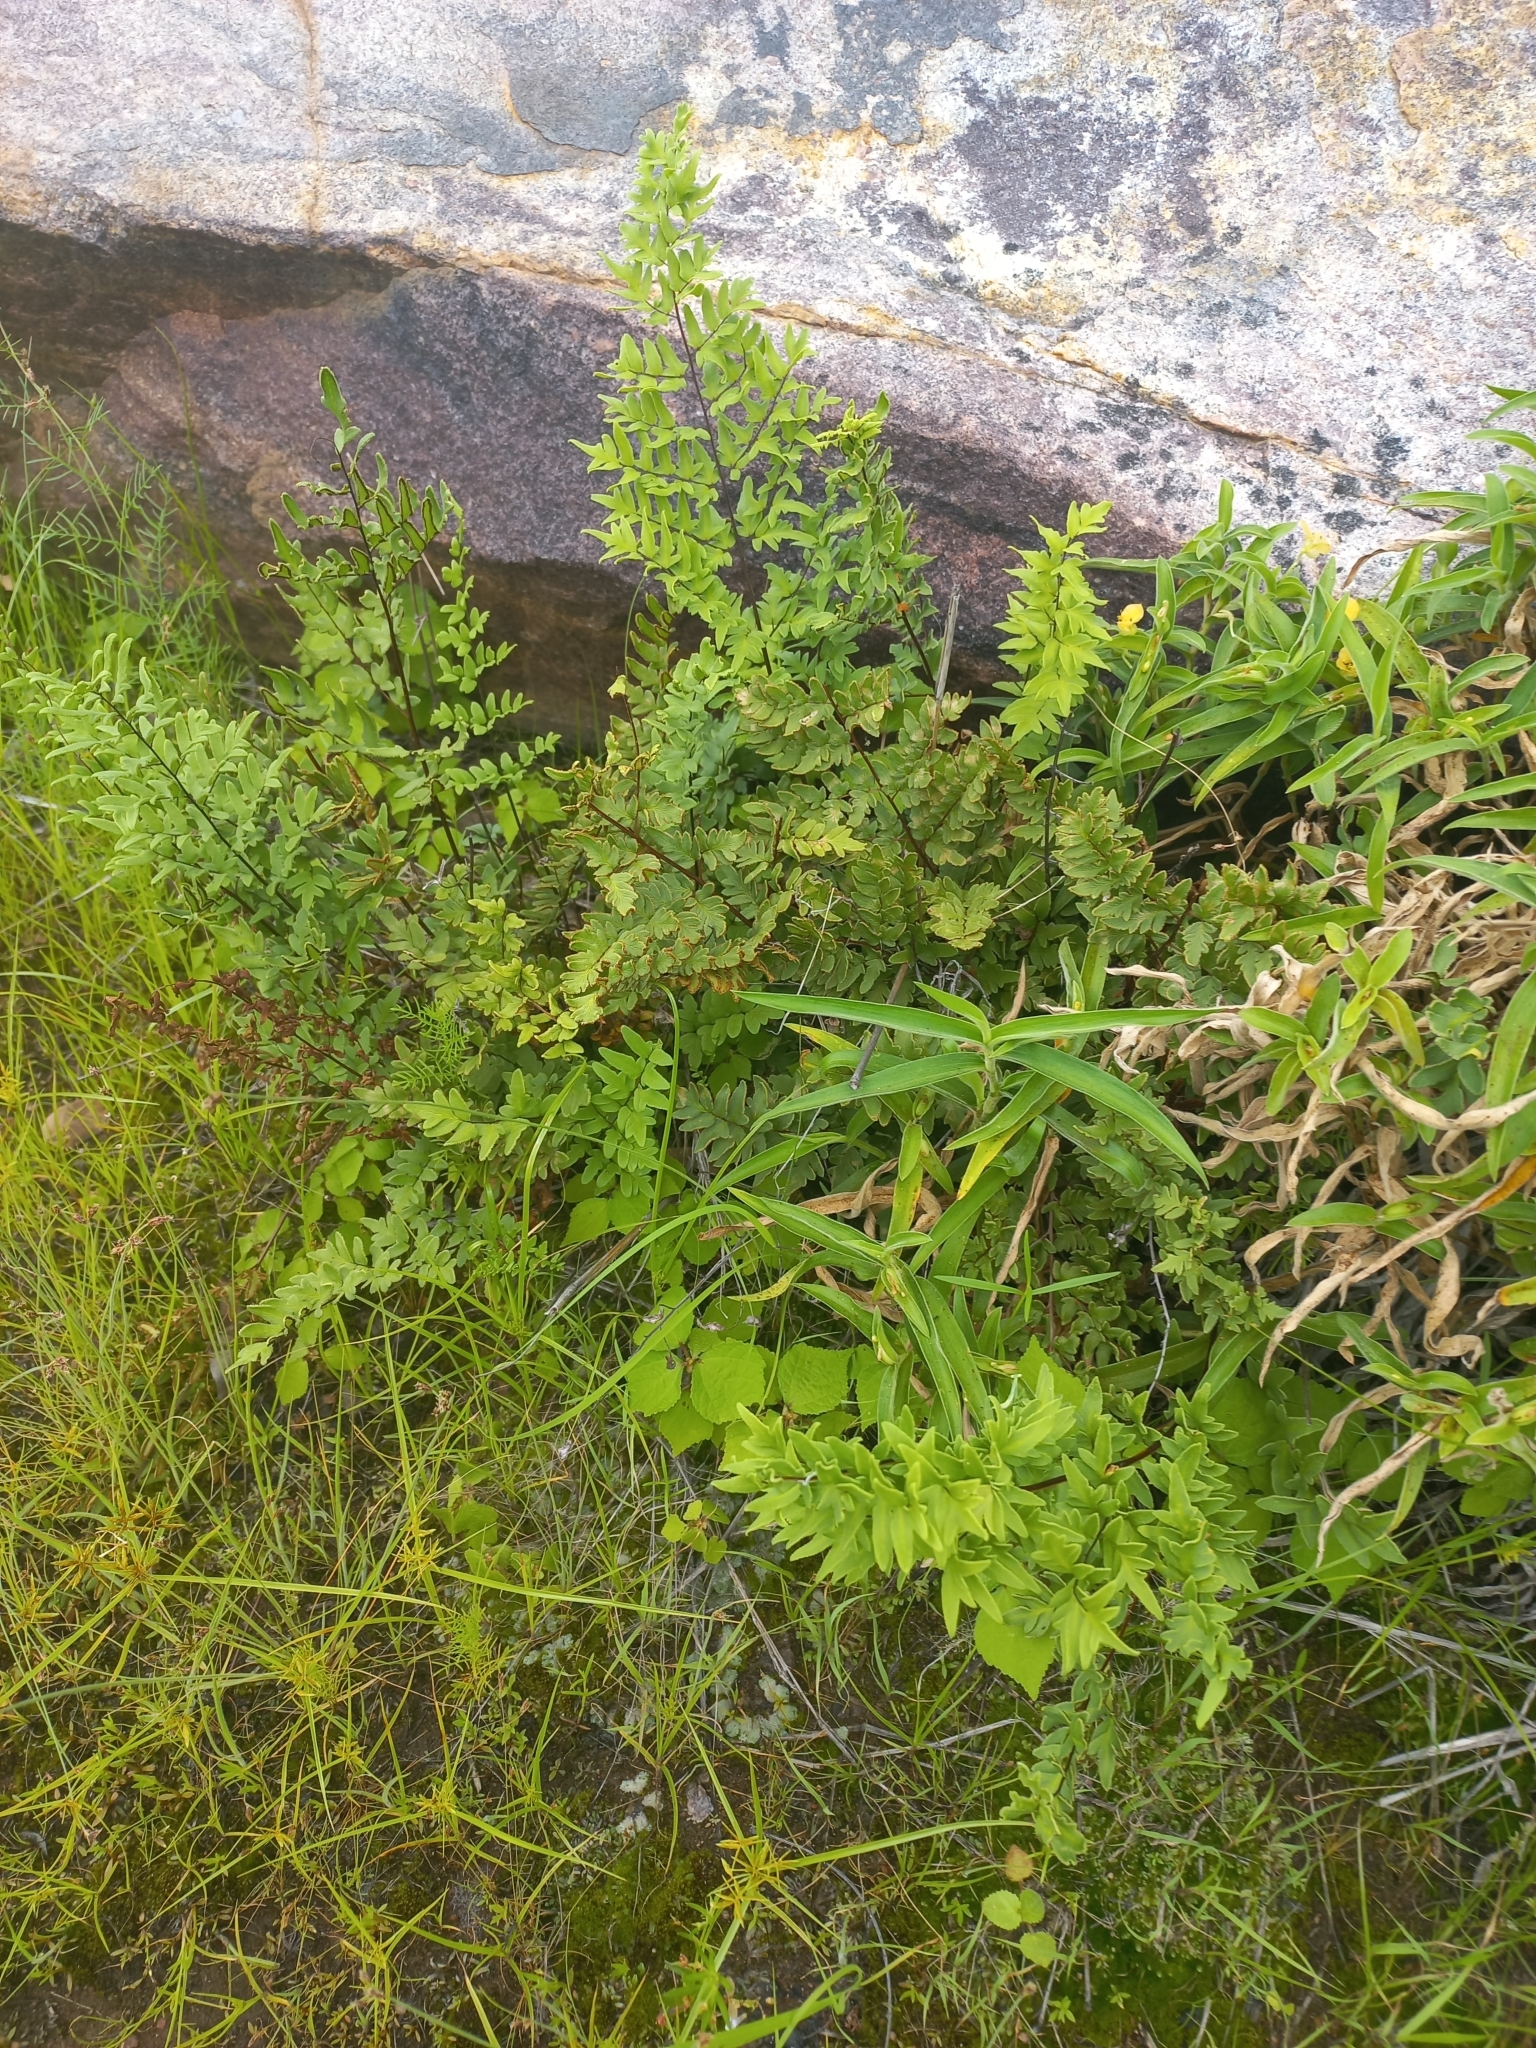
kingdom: Plantae
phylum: Tracheophyta
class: Polypodiopsida
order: Polypodiales
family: Pteridaceae
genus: Cheilanthes
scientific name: Cheilanthes viridis
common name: Green cliffbrake
